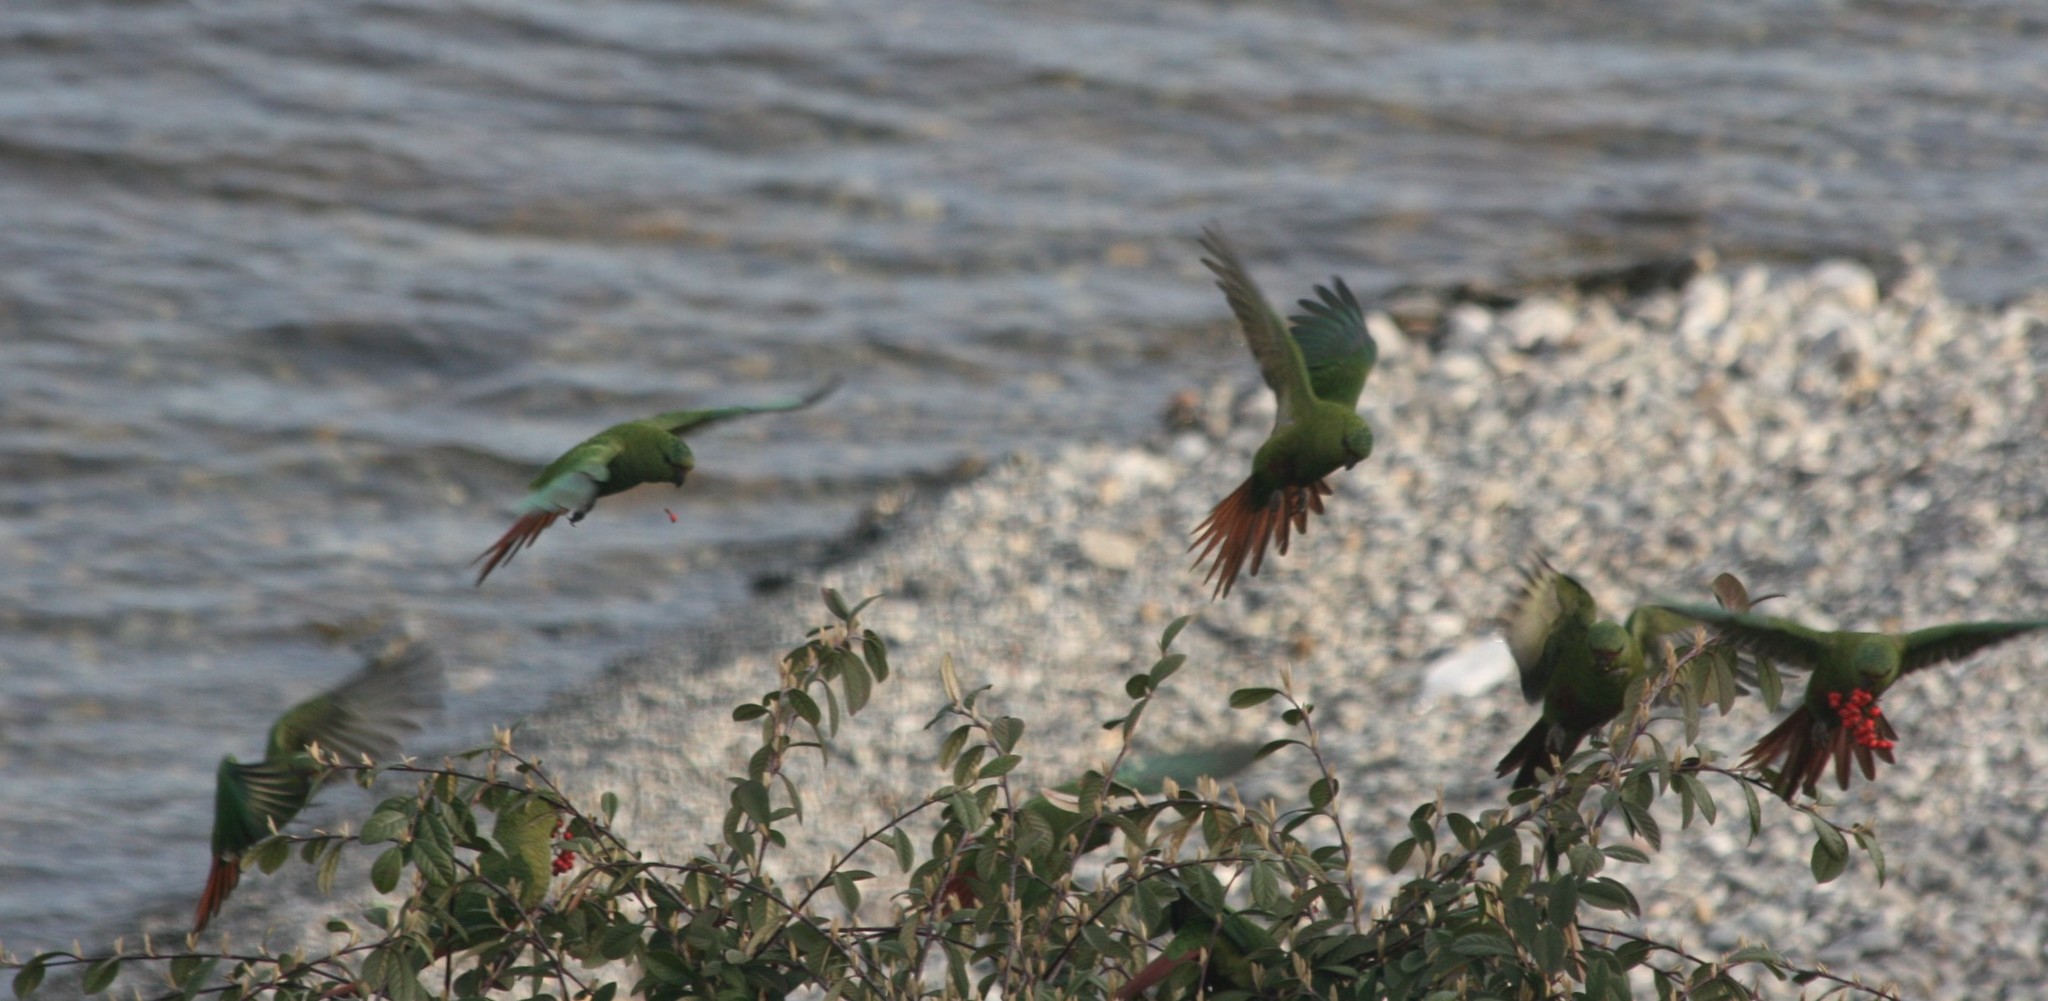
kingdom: Animalia
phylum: Chordata
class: Aves
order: Psittaciformes
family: Psittacidae
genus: Enicognathus
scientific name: Enicognathus ferrugineus
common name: Austral parakeet
